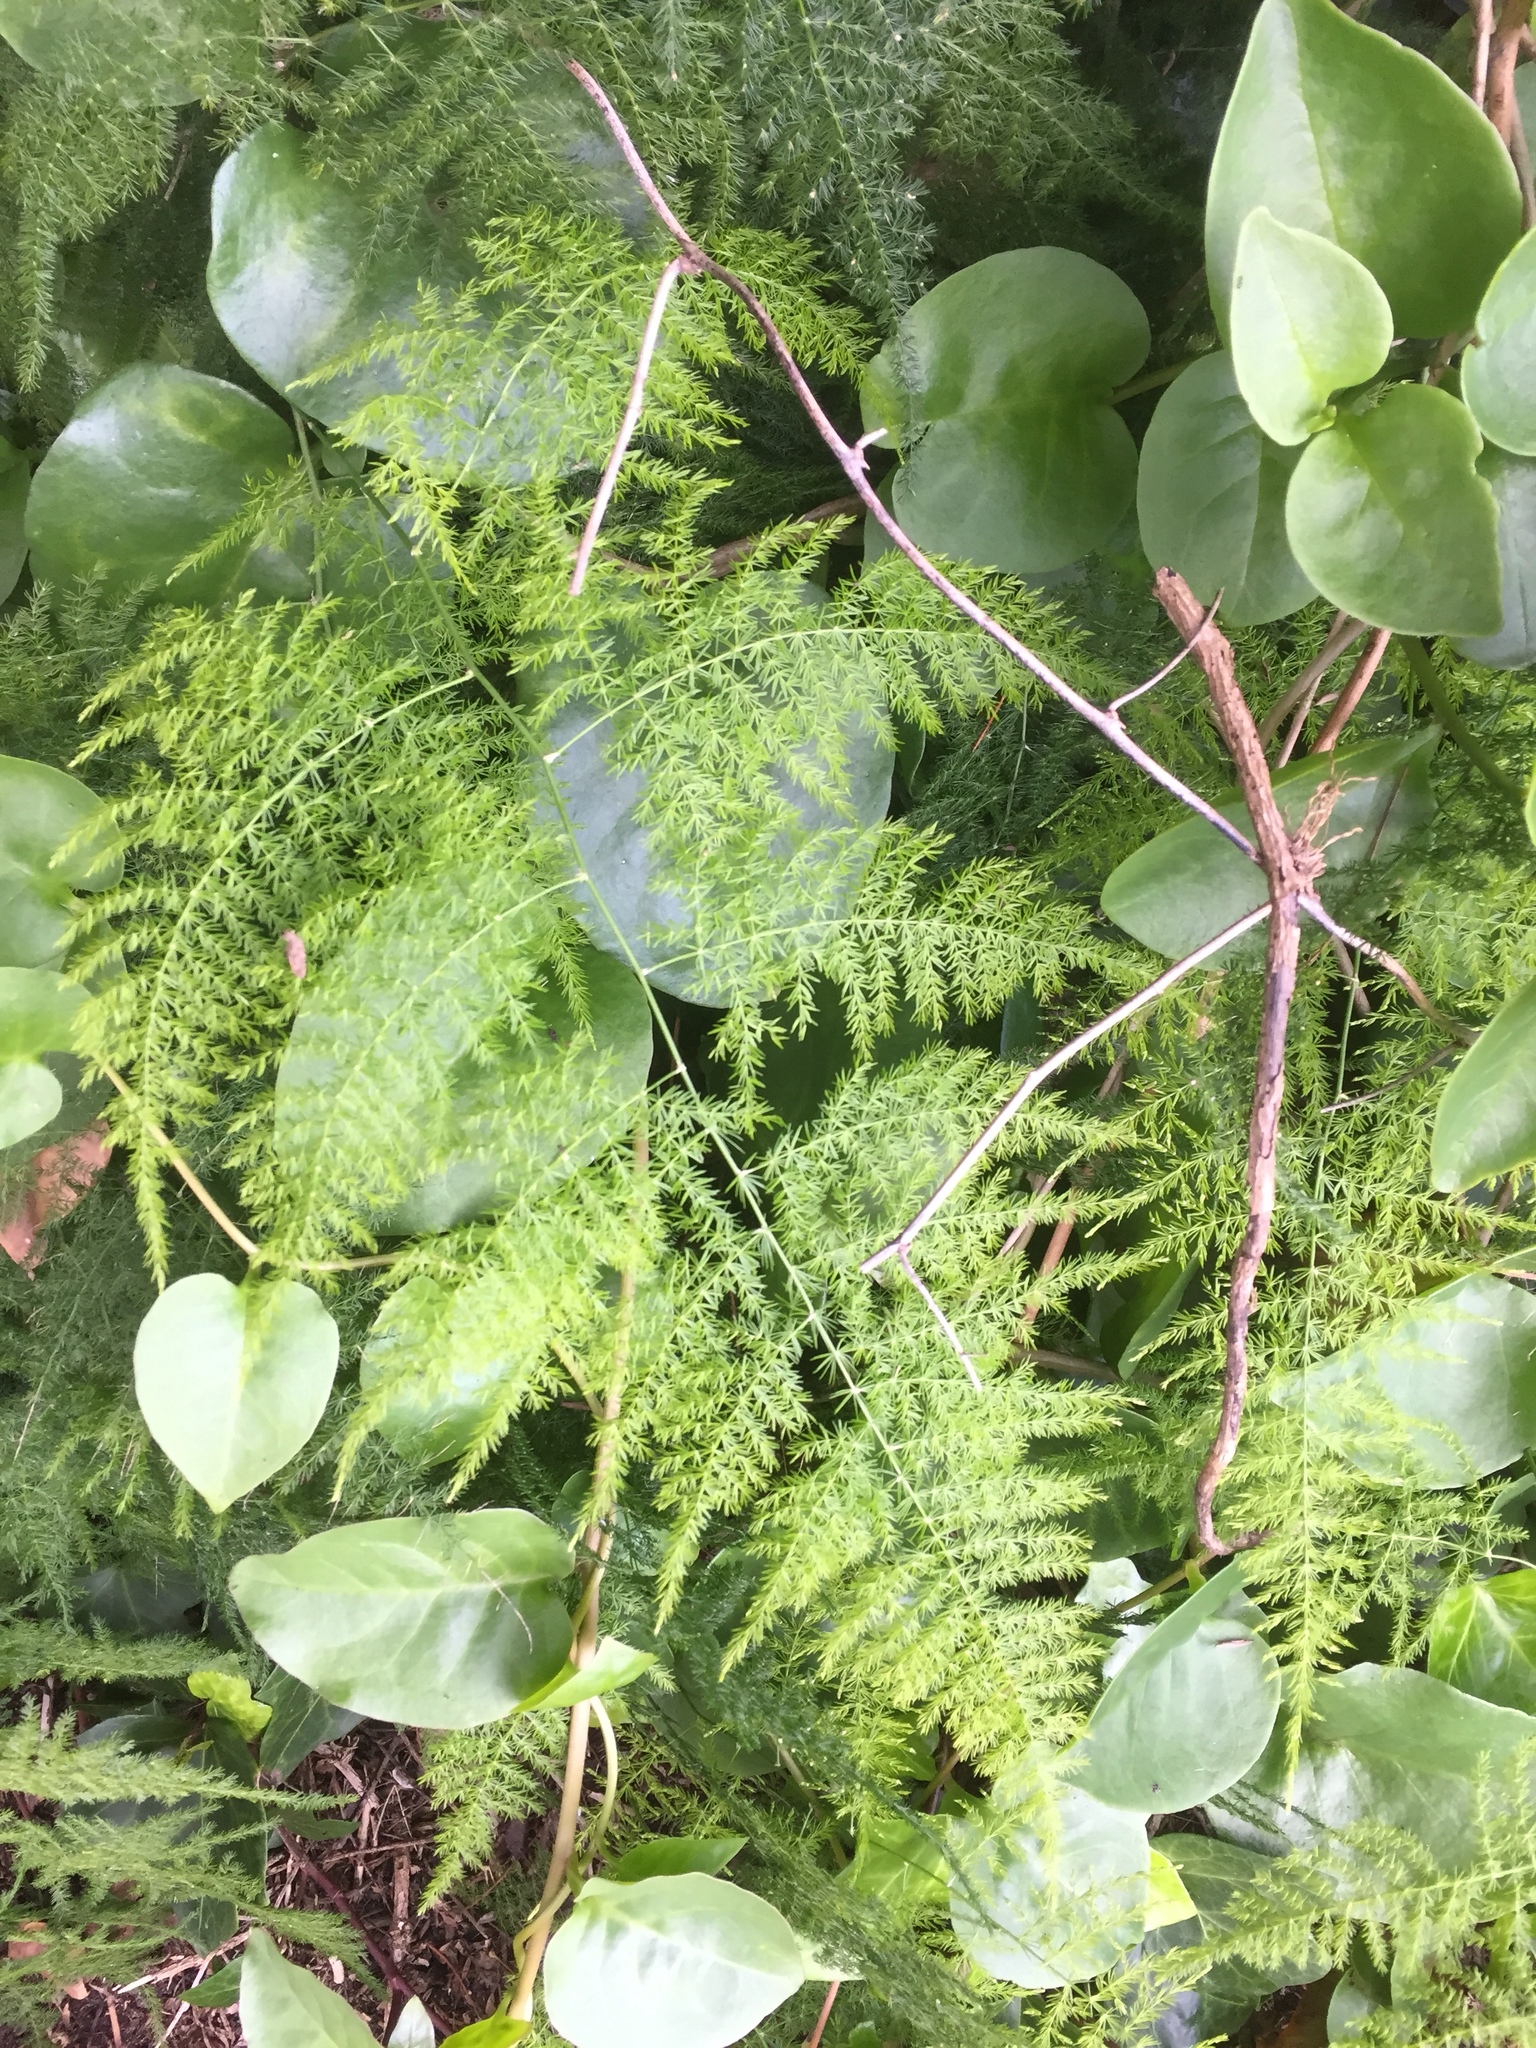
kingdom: Plantae
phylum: Tracheophyta
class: Liliopsida
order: Asparagales
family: Asparagaceae
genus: Asparagus
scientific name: Asparagus setaceus
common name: Common asparagus fern
